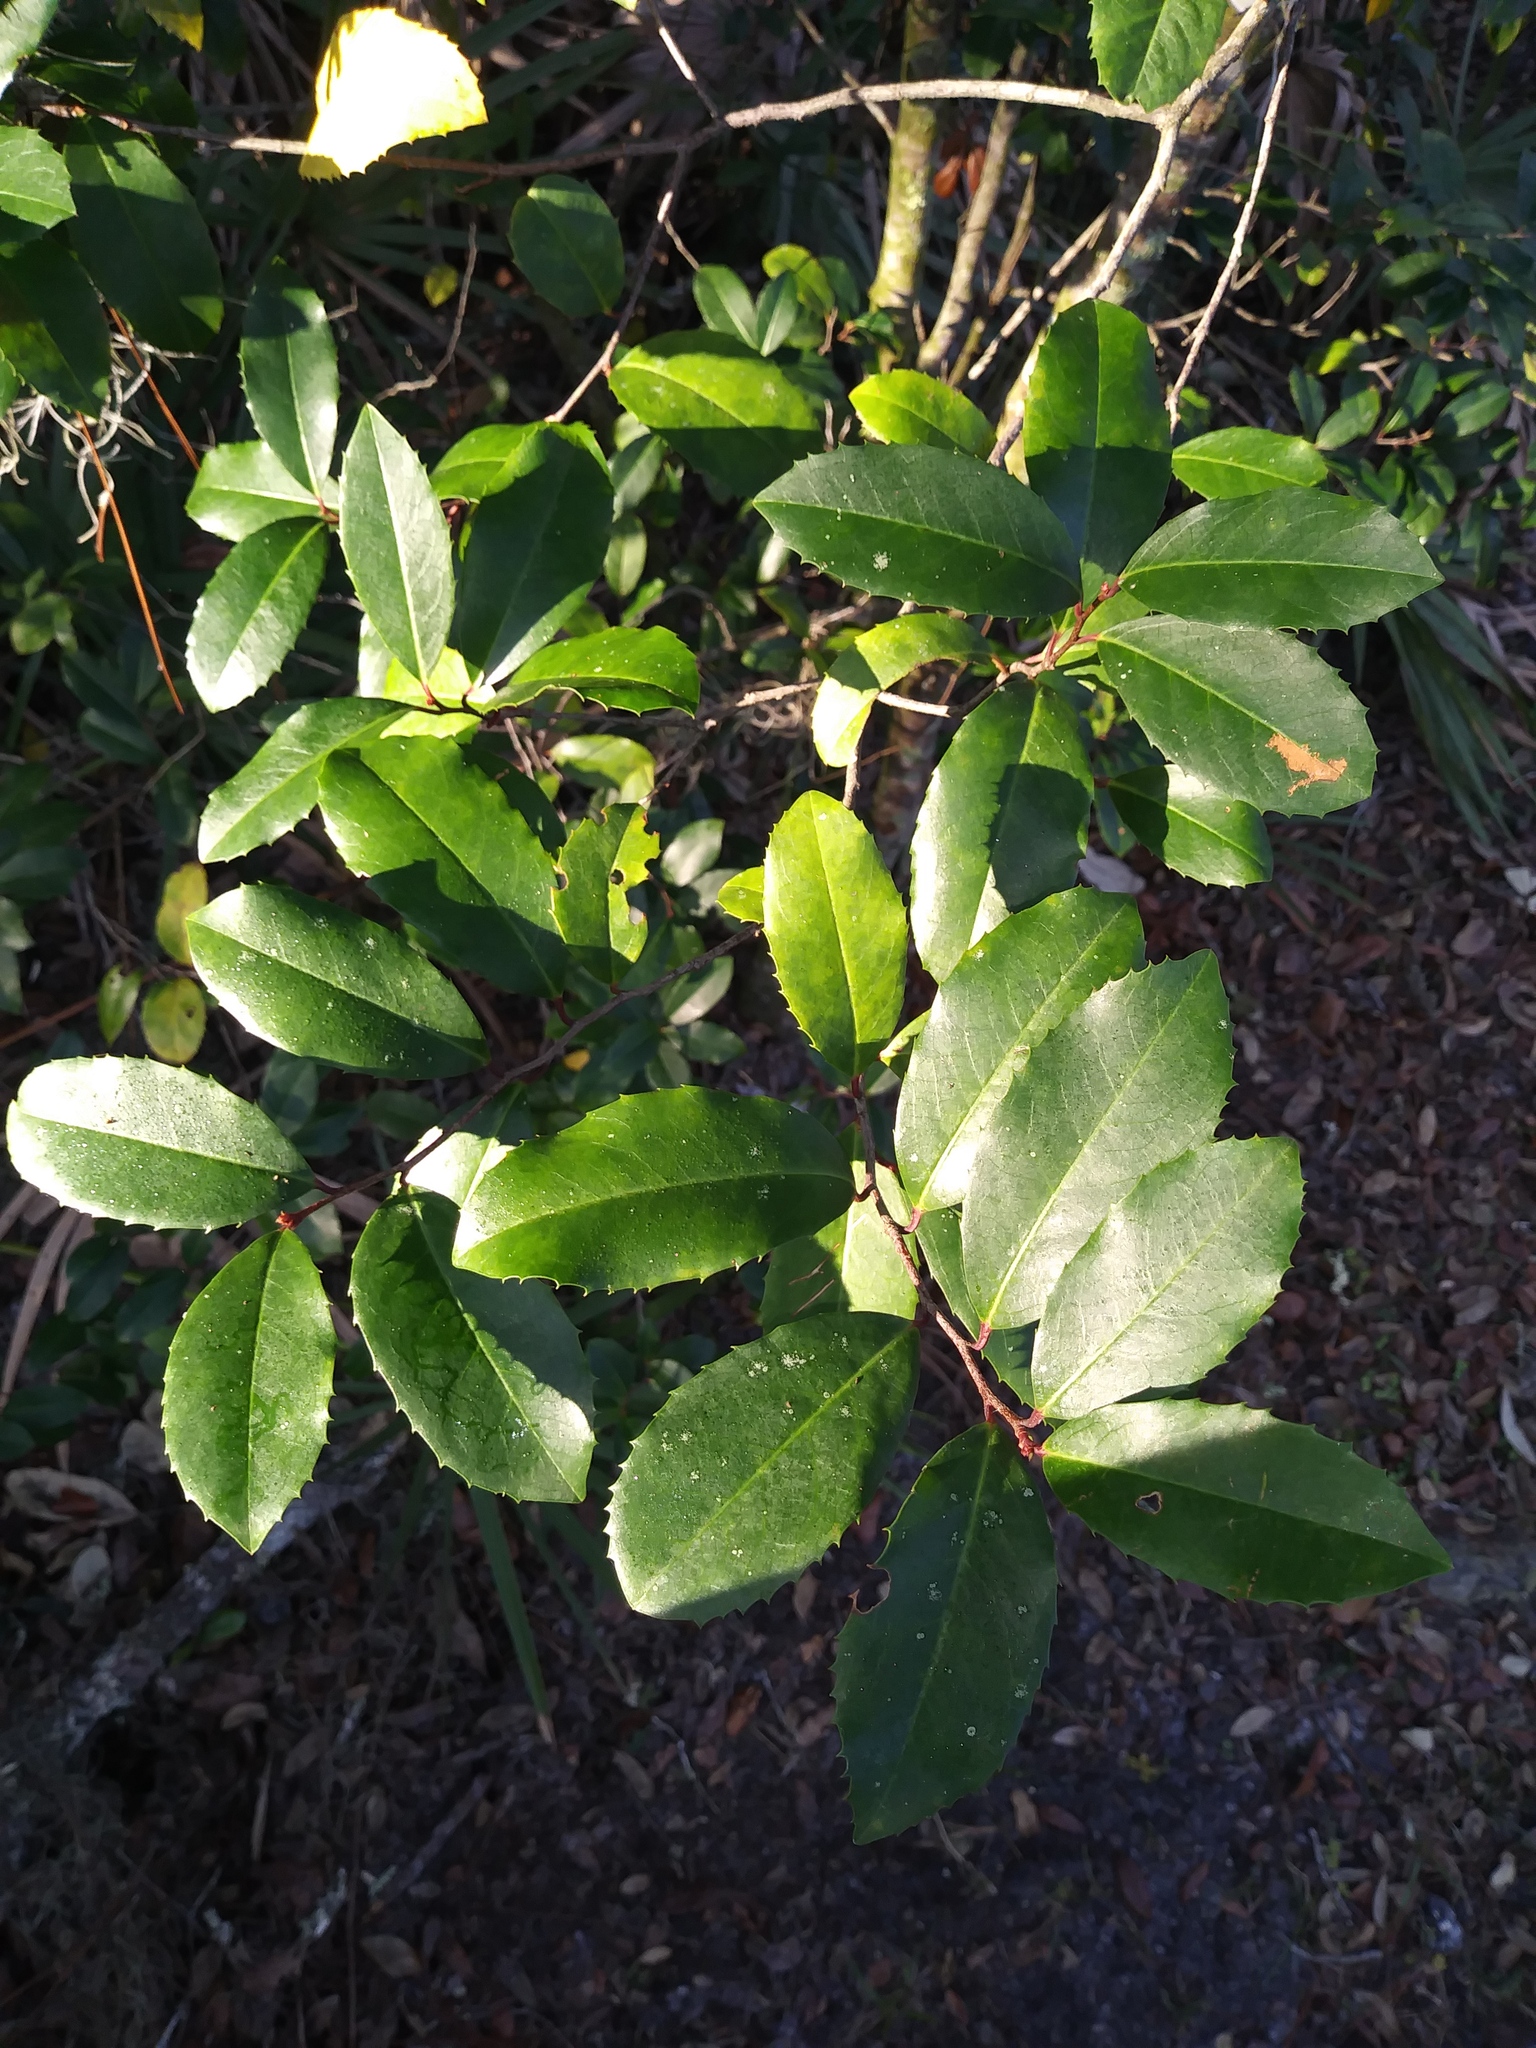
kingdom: Plantae
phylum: Tracheophyta
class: Magnoliopsida
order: Rosales
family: Rosaceae
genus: Prunus
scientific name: Prunus caroliniana
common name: Carolina laurel cherry
